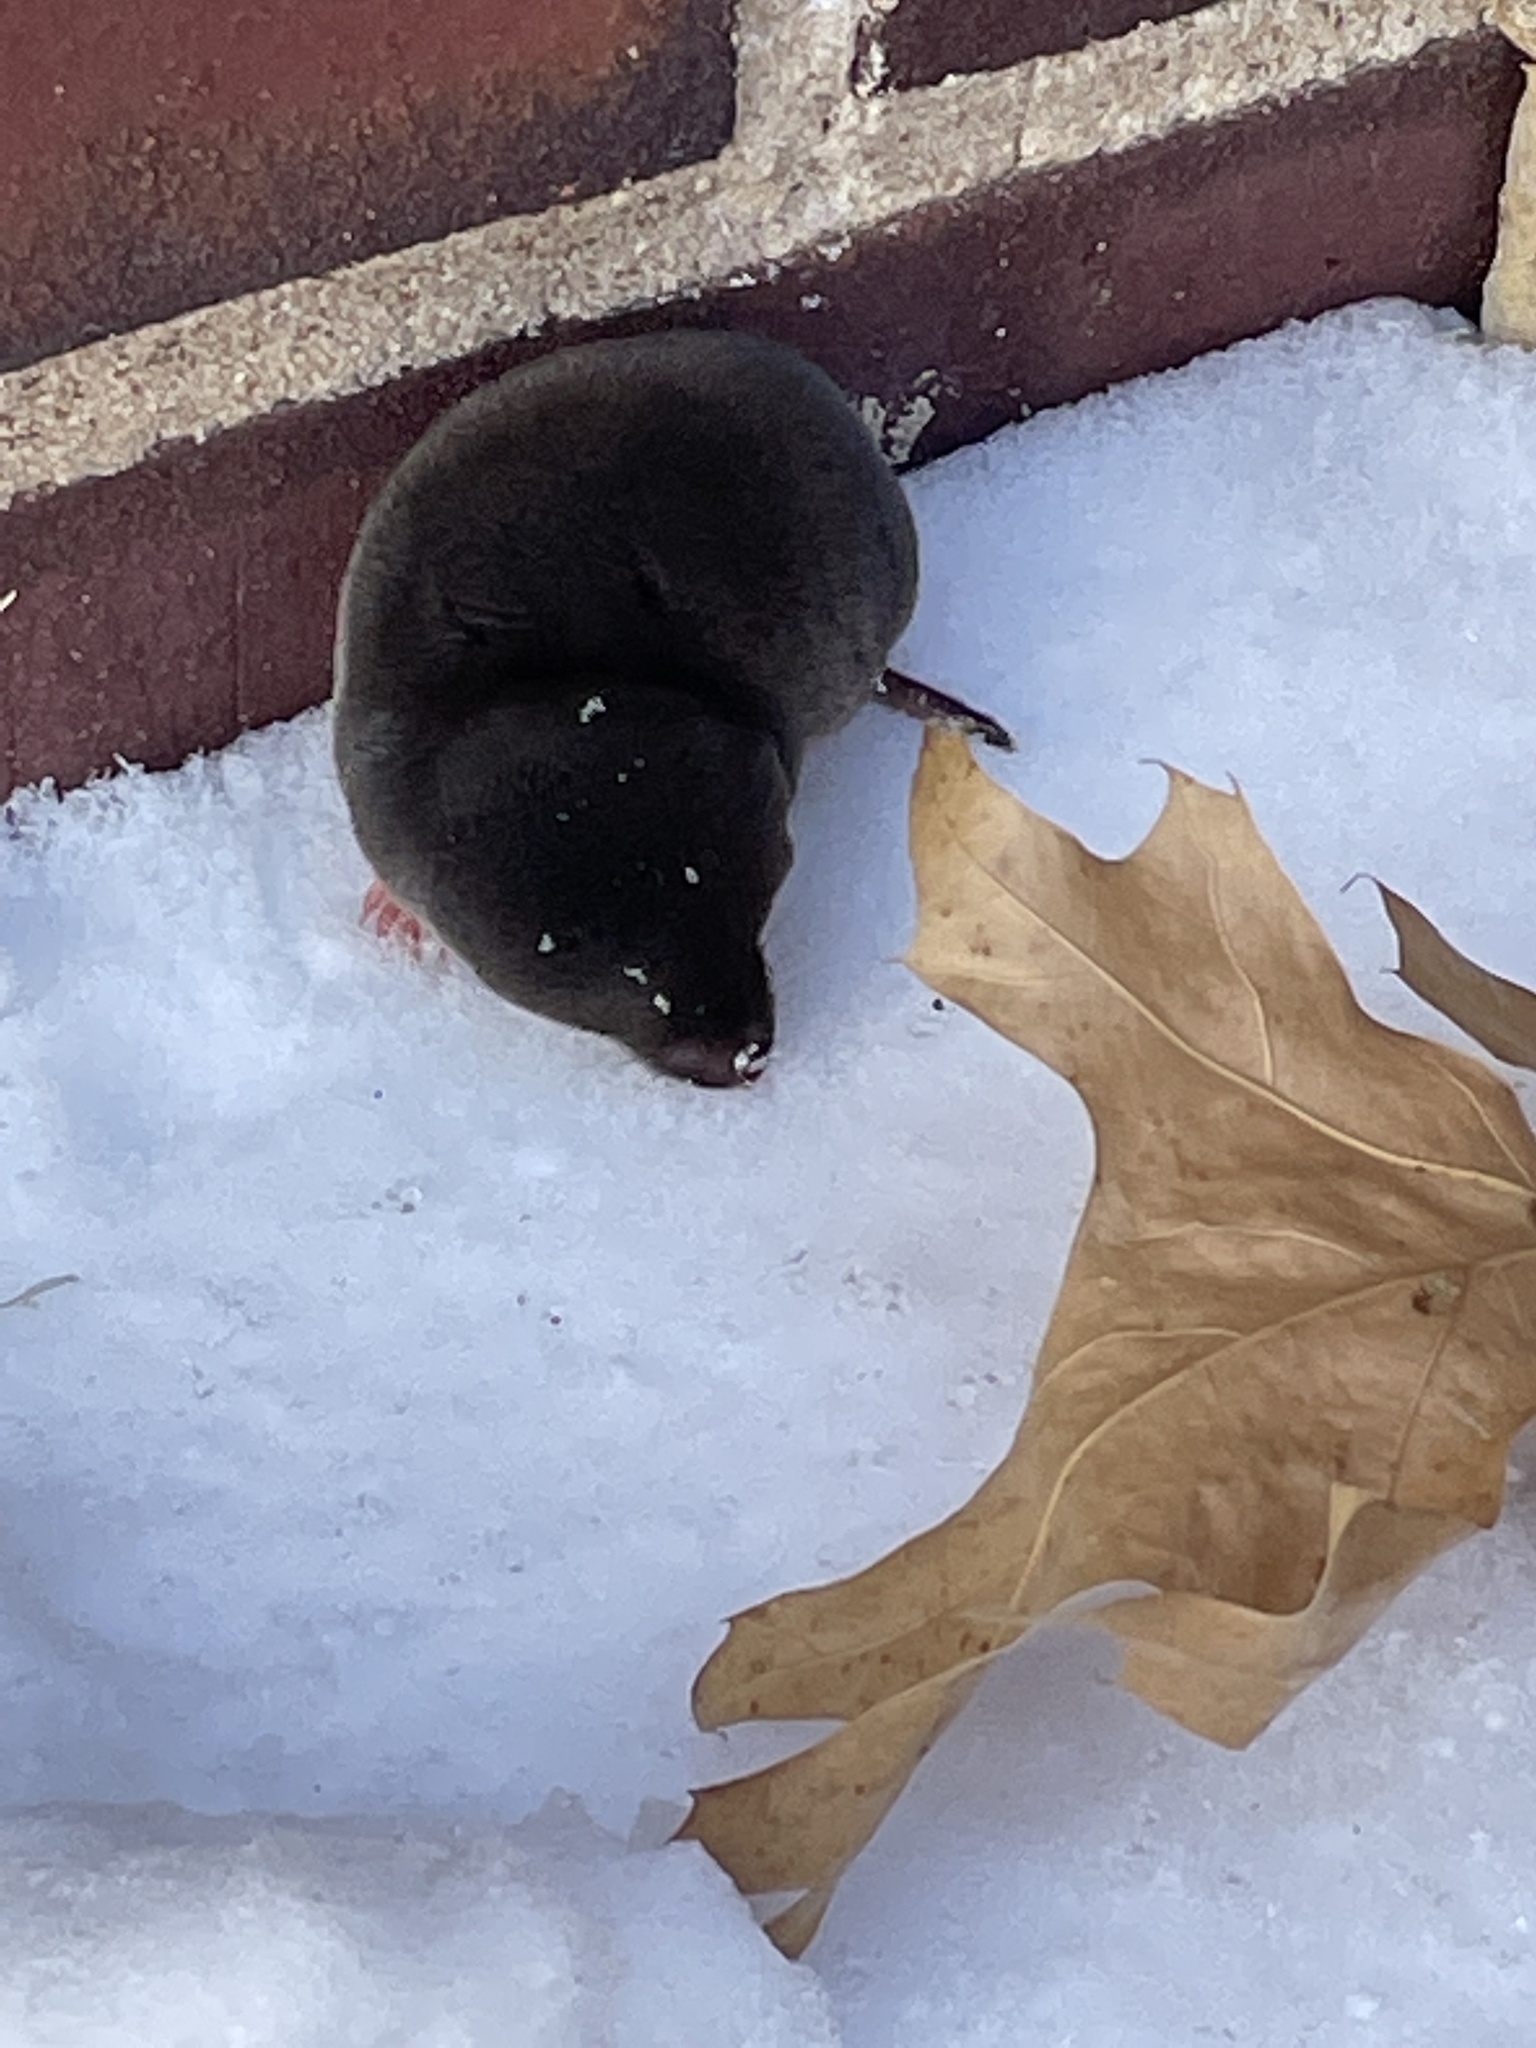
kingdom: Animalia
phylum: Chordata
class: Mammalia
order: Soricomorpha
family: Soricidae
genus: Blarina
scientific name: Blarina brevicauda
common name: Northern short-tailed shrew
